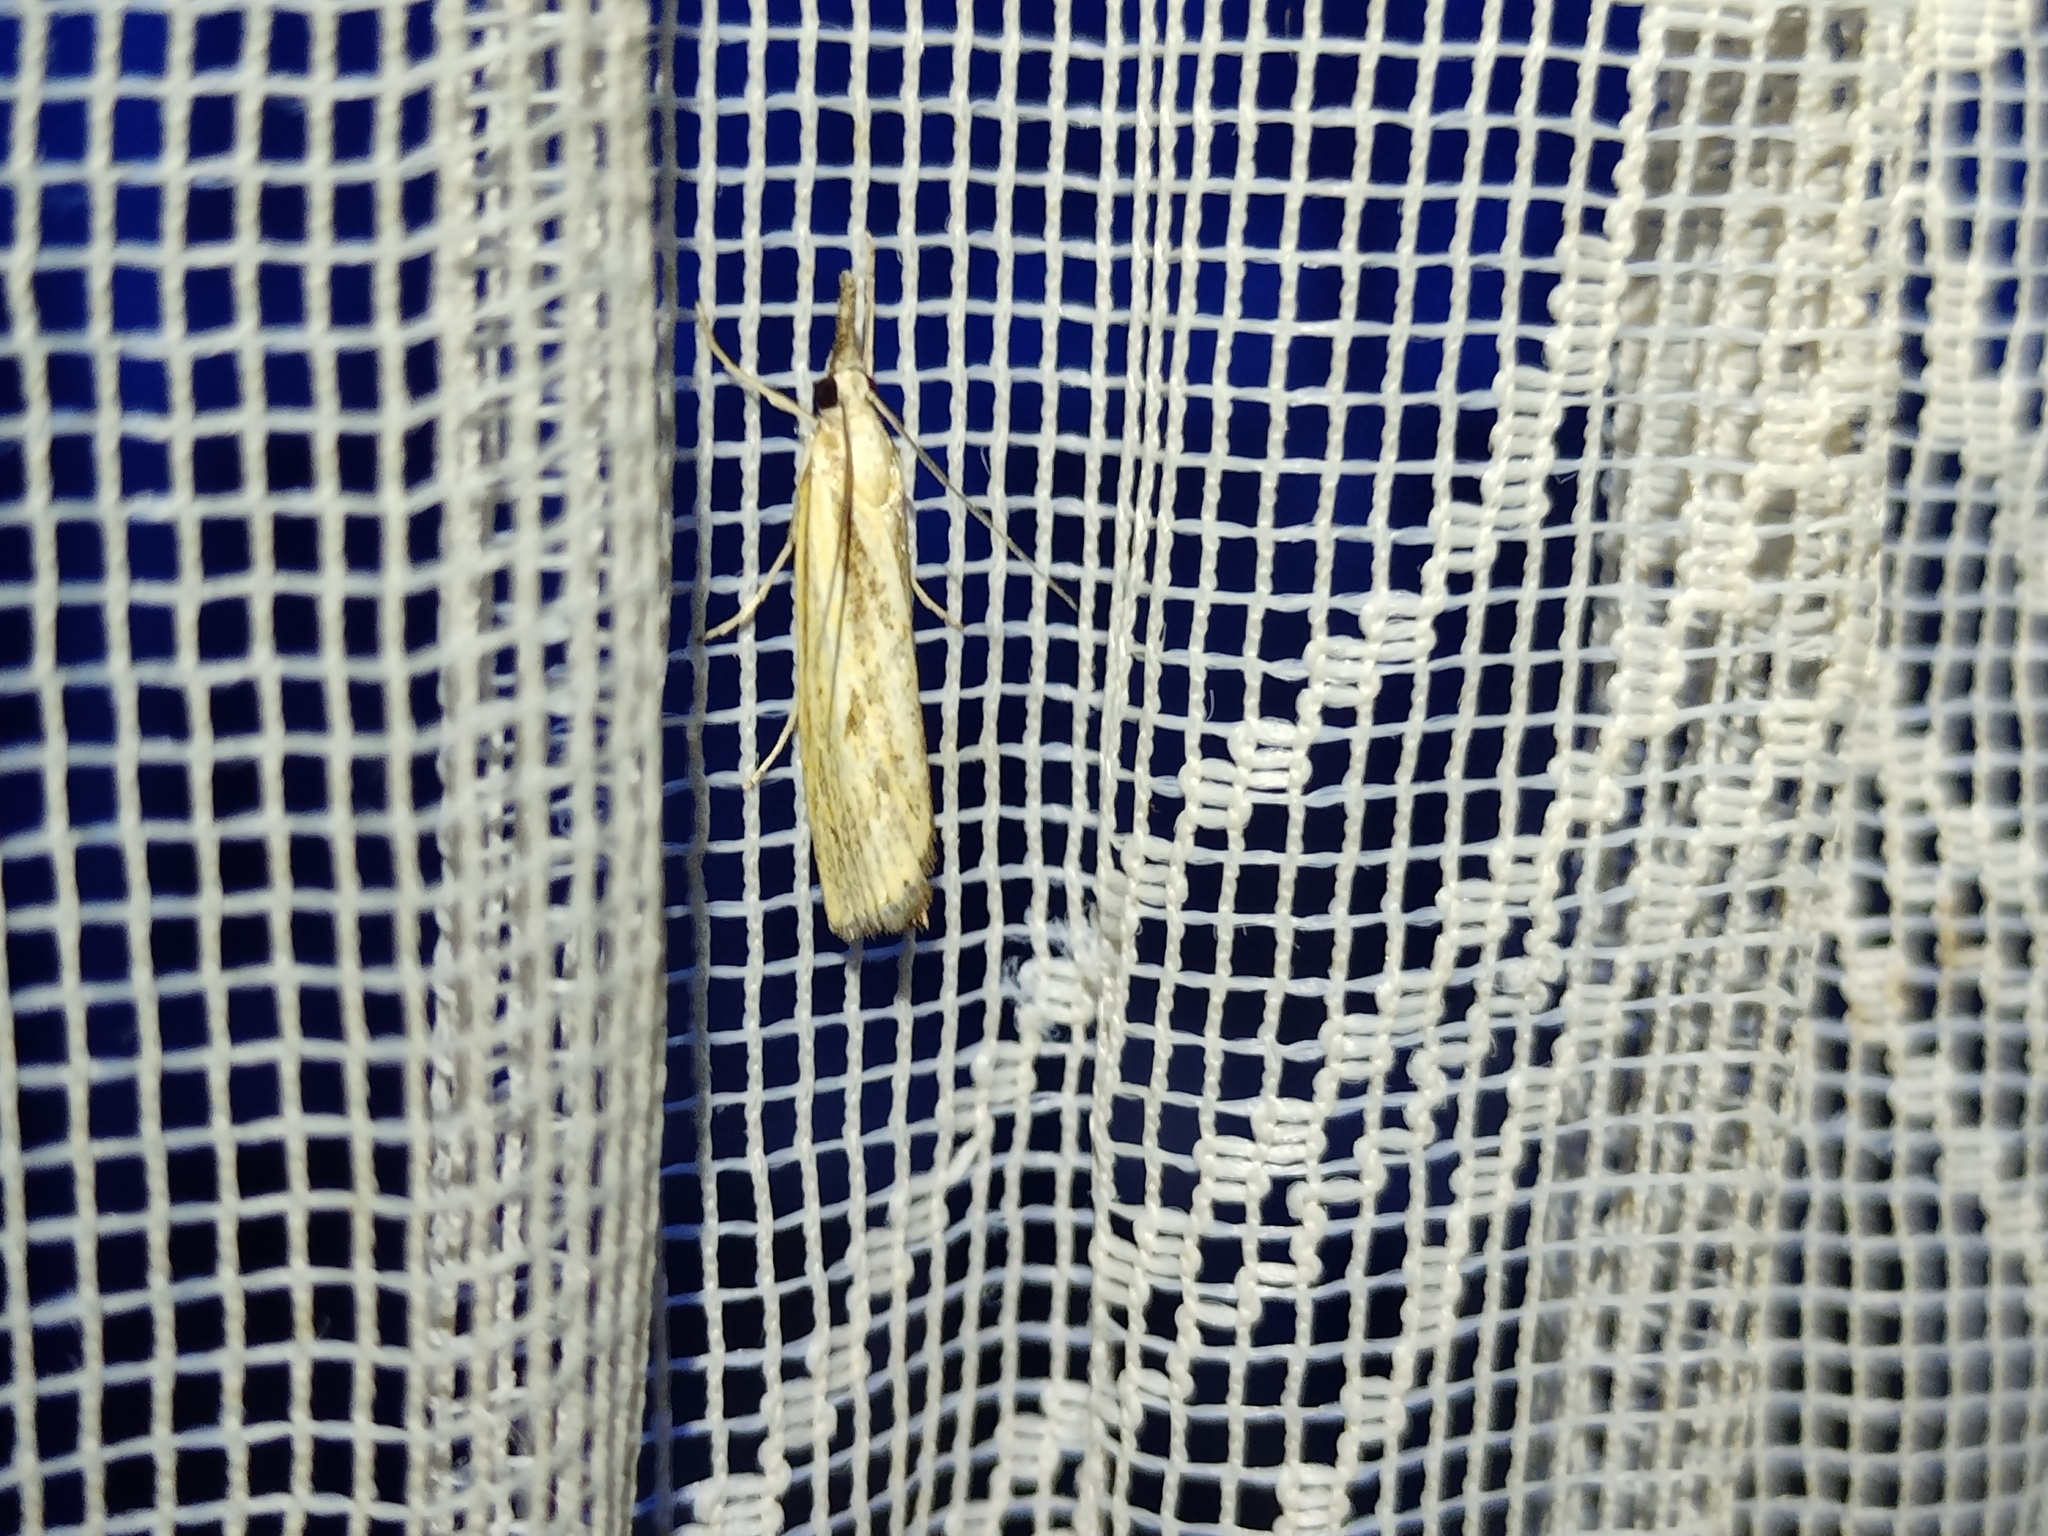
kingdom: Animalia
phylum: Arthropoda
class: Insecta
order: Lepidoptera
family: Crambidae
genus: Agriphila
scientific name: Agriphila inquinatella
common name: Barred grass-veneer
